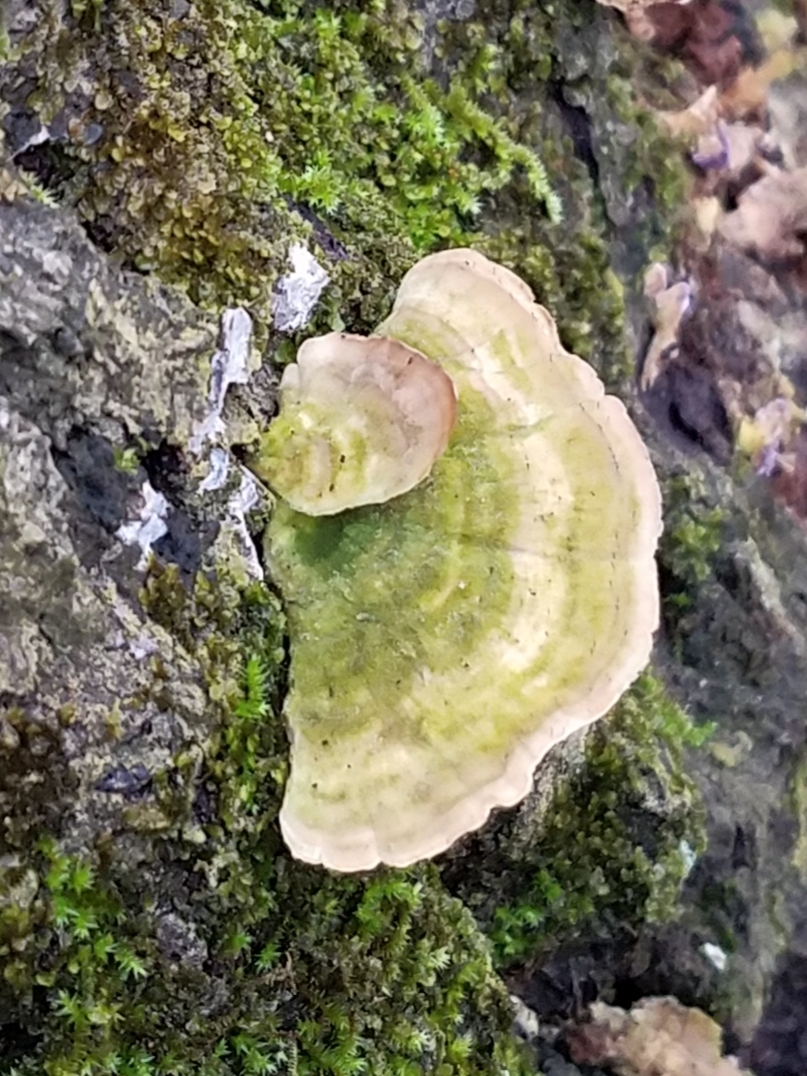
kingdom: Fungi
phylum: Ascomycota
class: Eurotiomycetes
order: Mycocaliciales
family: Mycocaliciaceae
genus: Phaeocalicium
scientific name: Phaeocalicium polyporaeum
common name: Fairy pins
